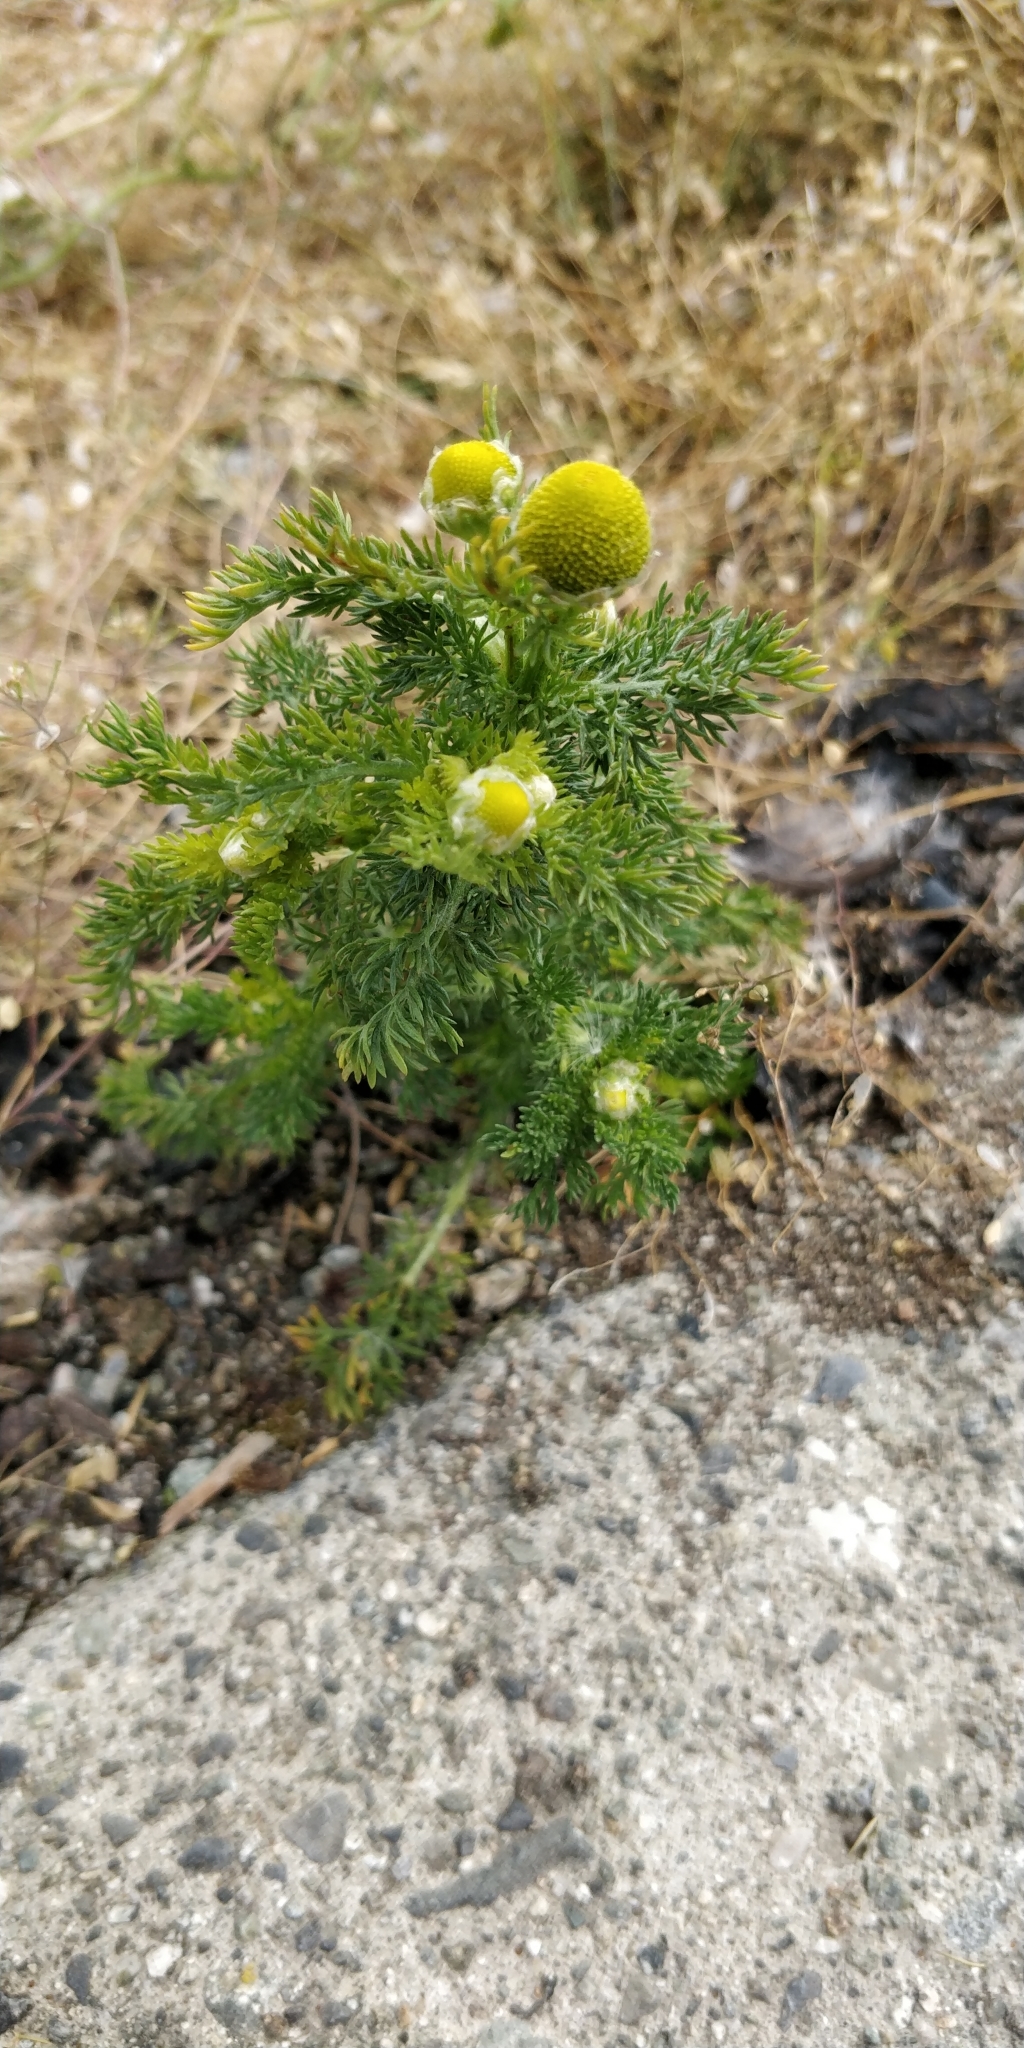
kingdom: Plantae
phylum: Tracheophyta
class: Magnoliopsida
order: Asterales
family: Asteraceae
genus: Matricaria
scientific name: Matricaria discoidea
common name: Disc mayweed
